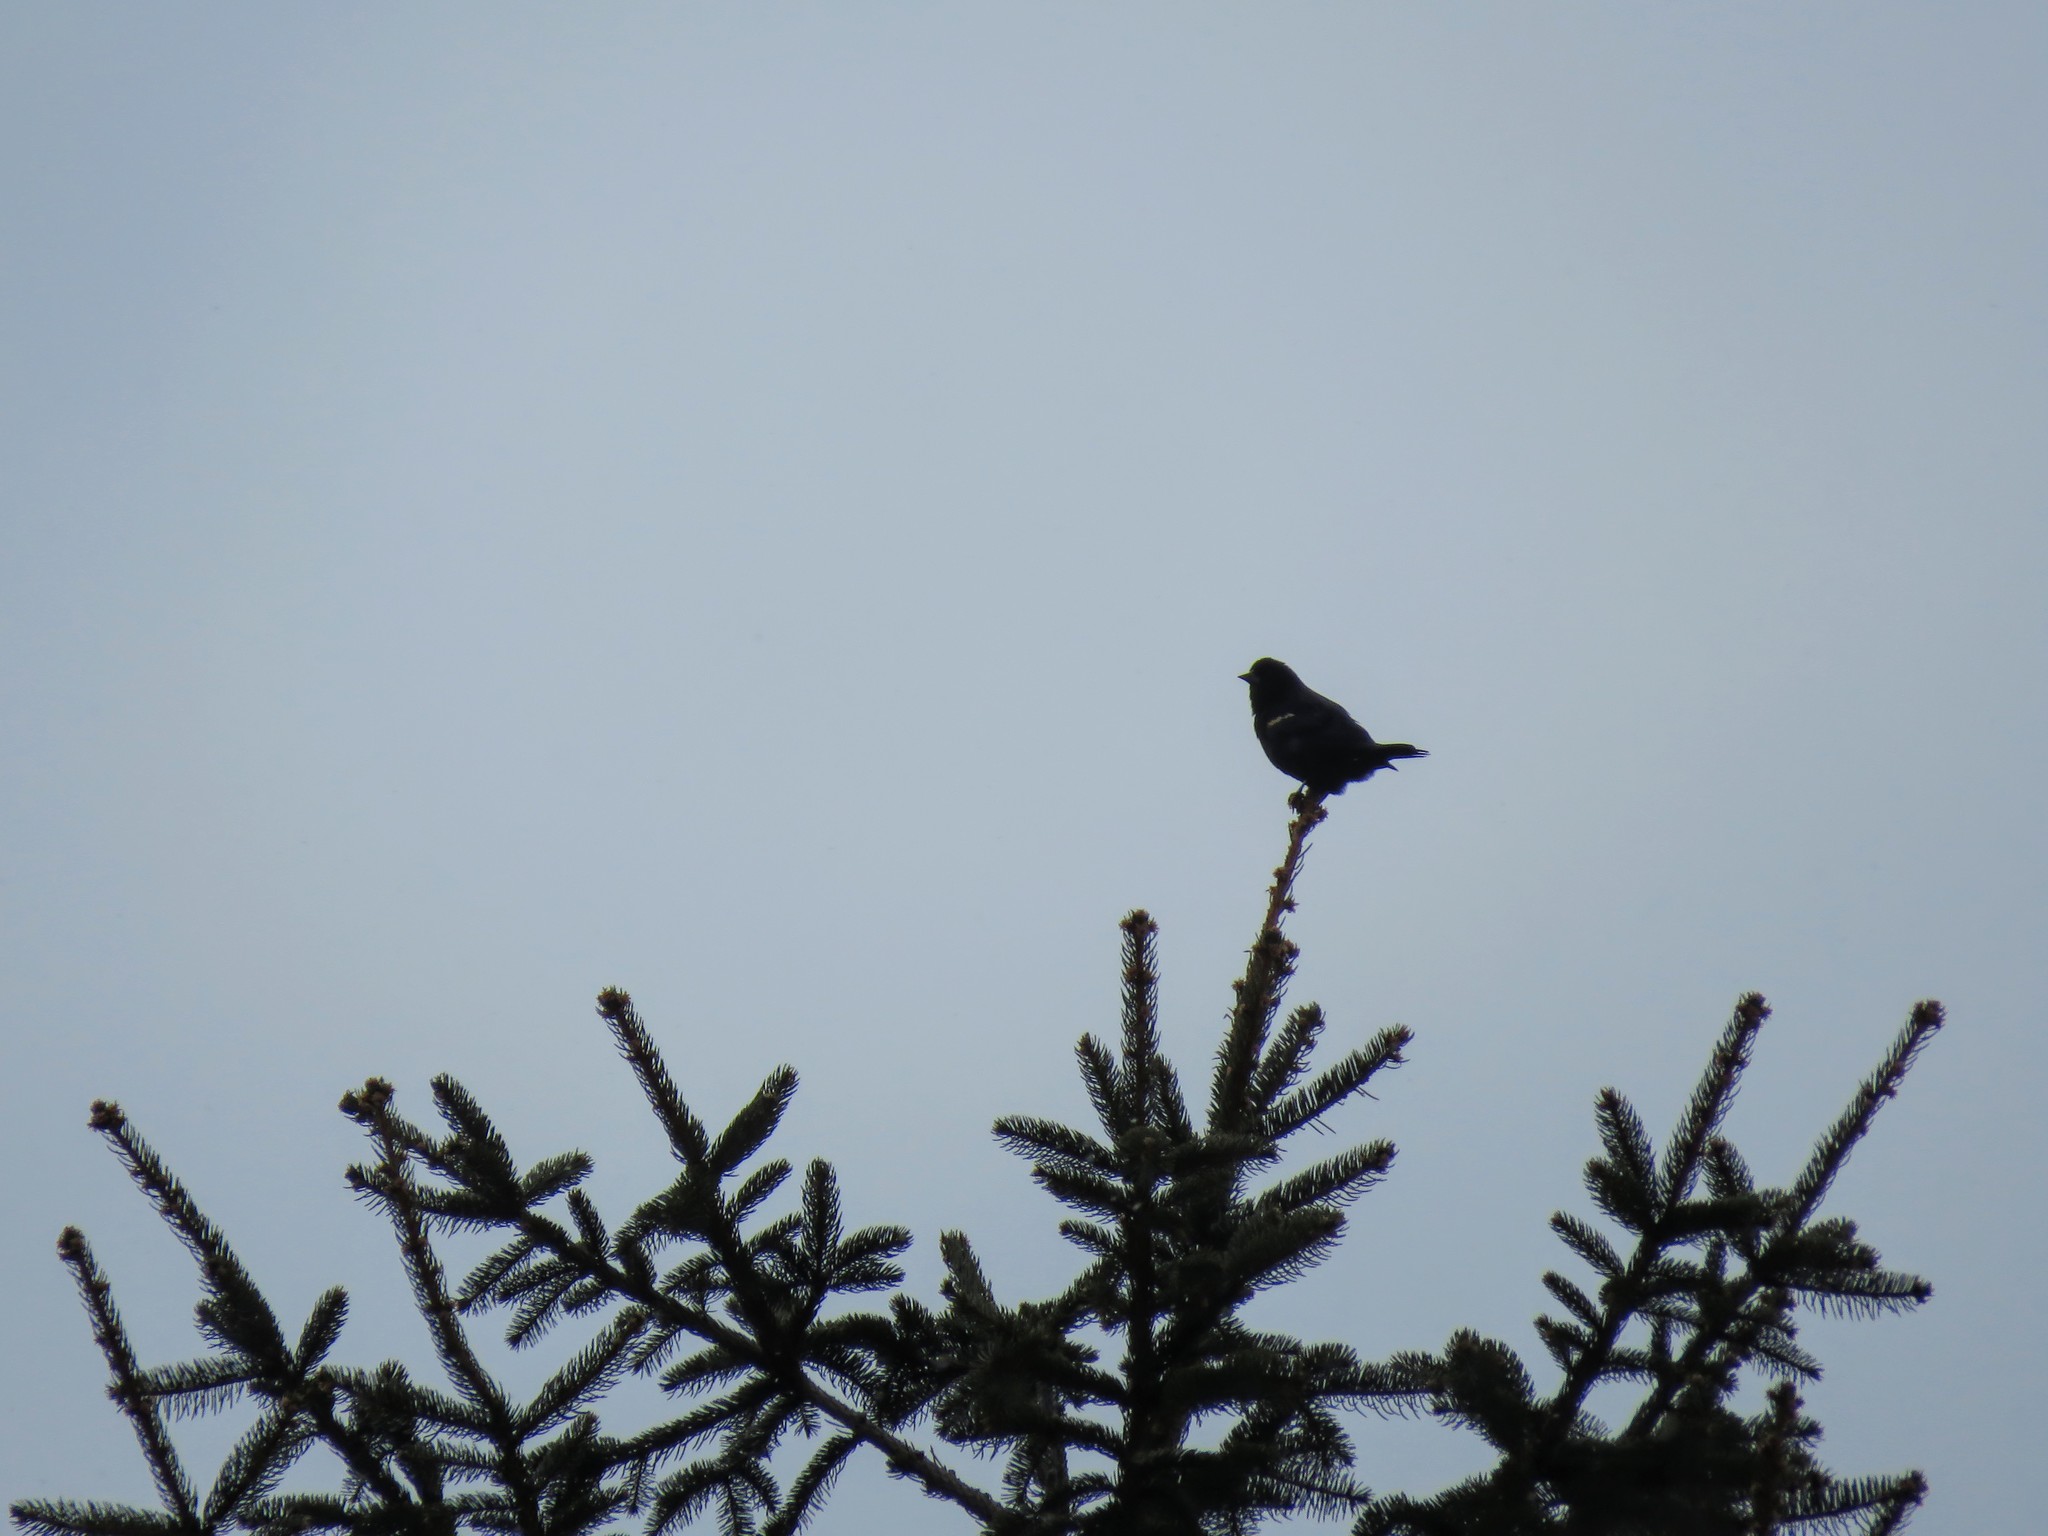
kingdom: Animalia
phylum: Chordata
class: Aves
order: Passeriformes
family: Icteridae
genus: Agelaius
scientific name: Agelaius phoeniceus
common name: Red-winged blackbird
